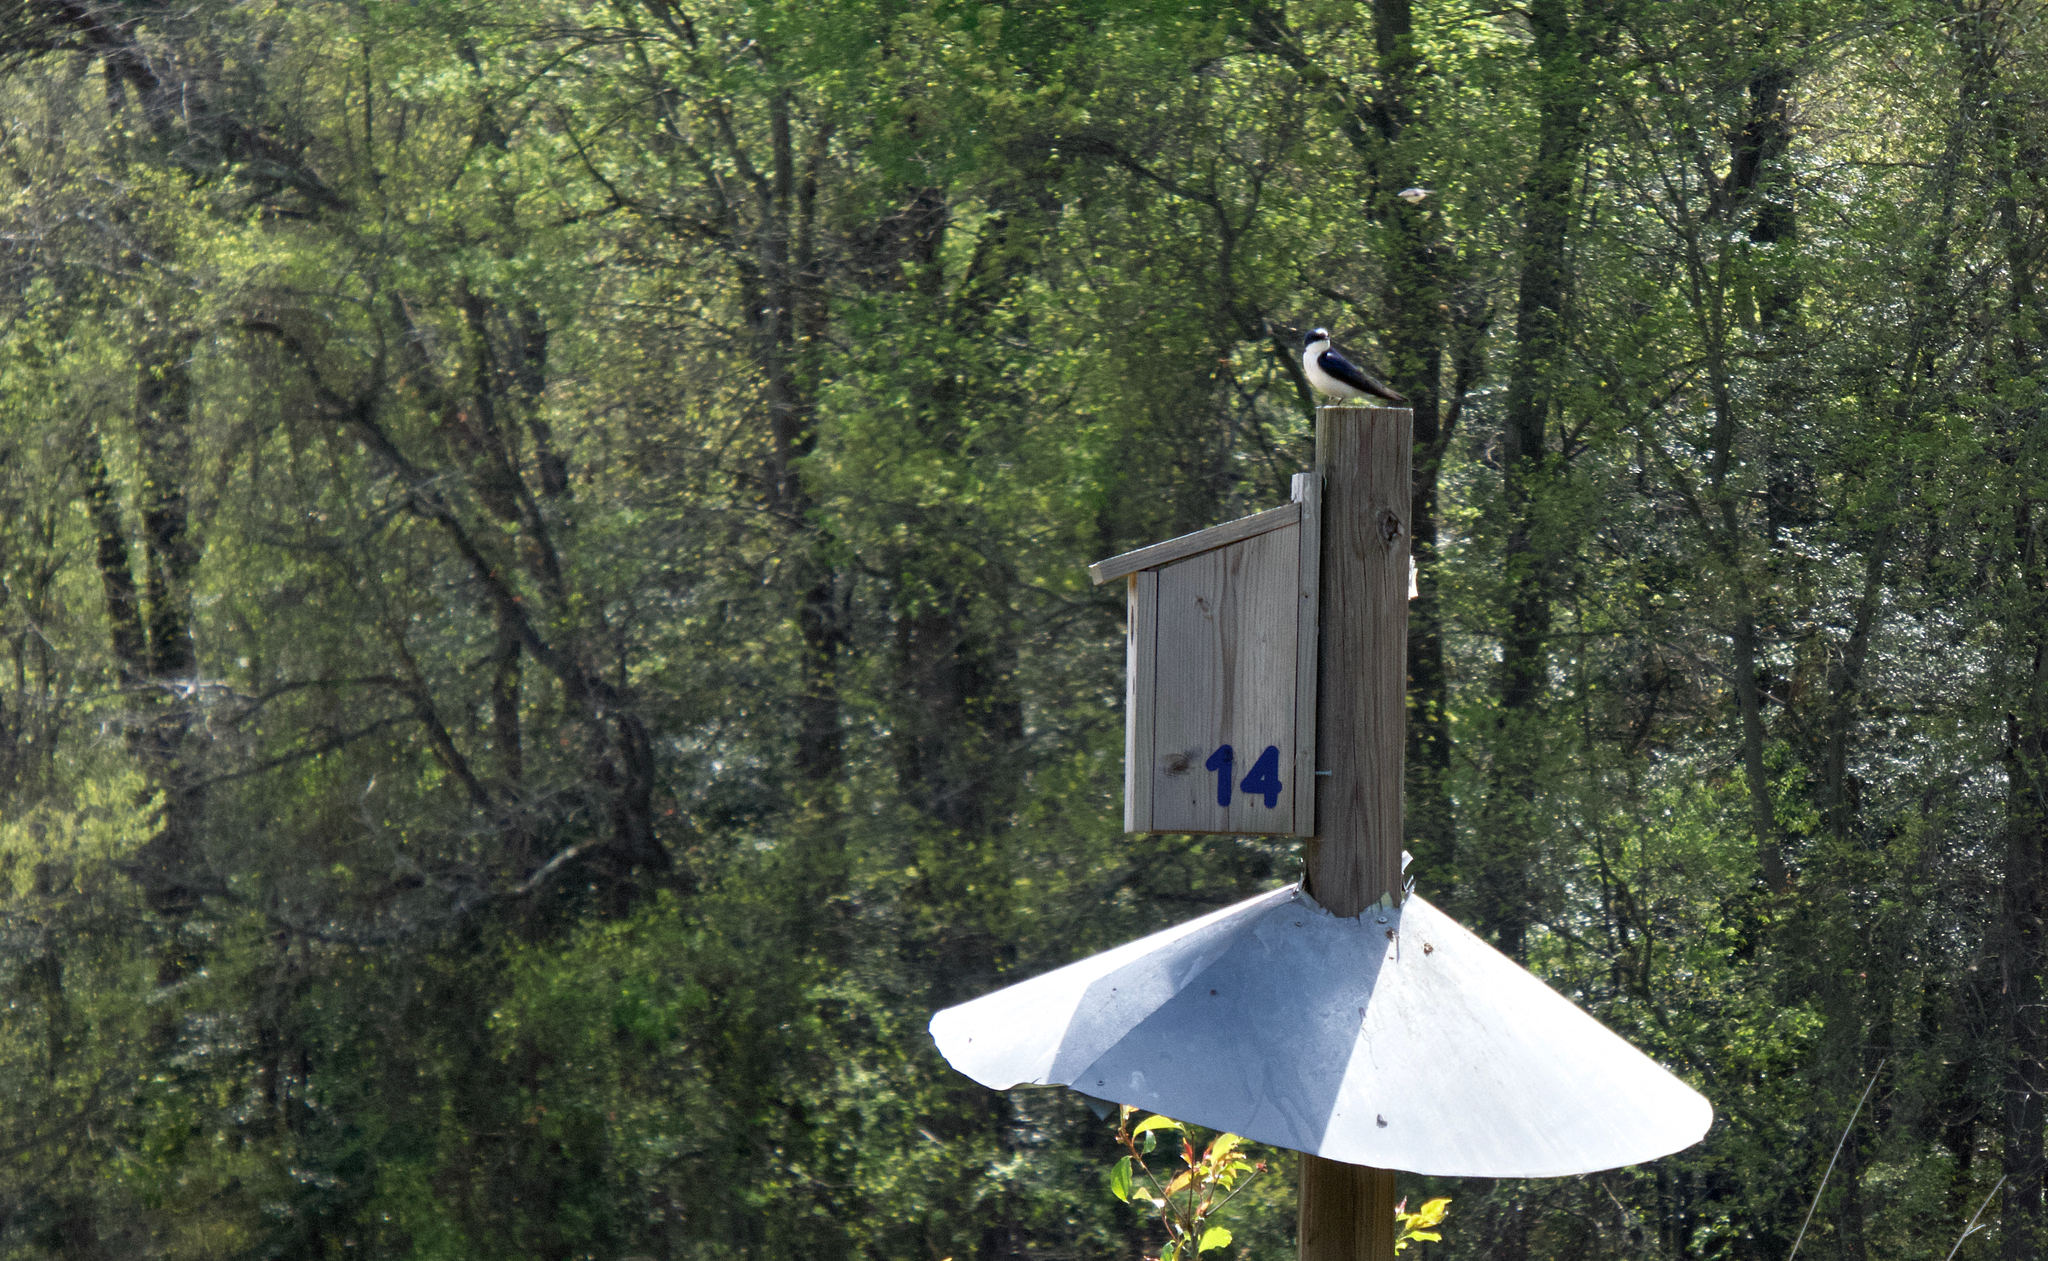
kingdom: Animalia
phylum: Chordata
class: Aves
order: Passeriformes
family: Hirundinidae
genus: Tachycineta
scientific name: Tachycineta bicolor
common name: Tree swallow
